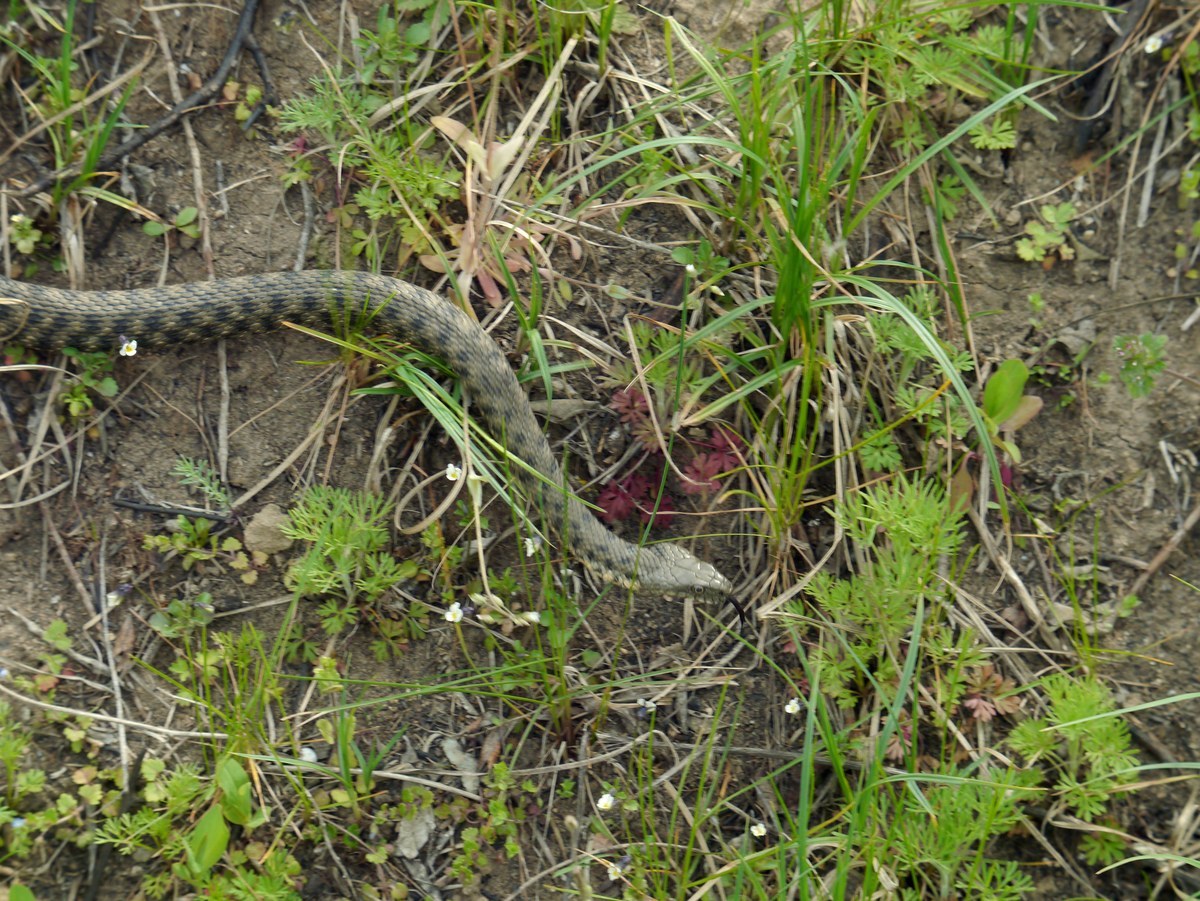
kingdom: Animalia
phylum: Chordata
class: Squamata
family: Colubridae
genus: Natrix
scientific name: Natrix tessellata
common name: Dice snake
